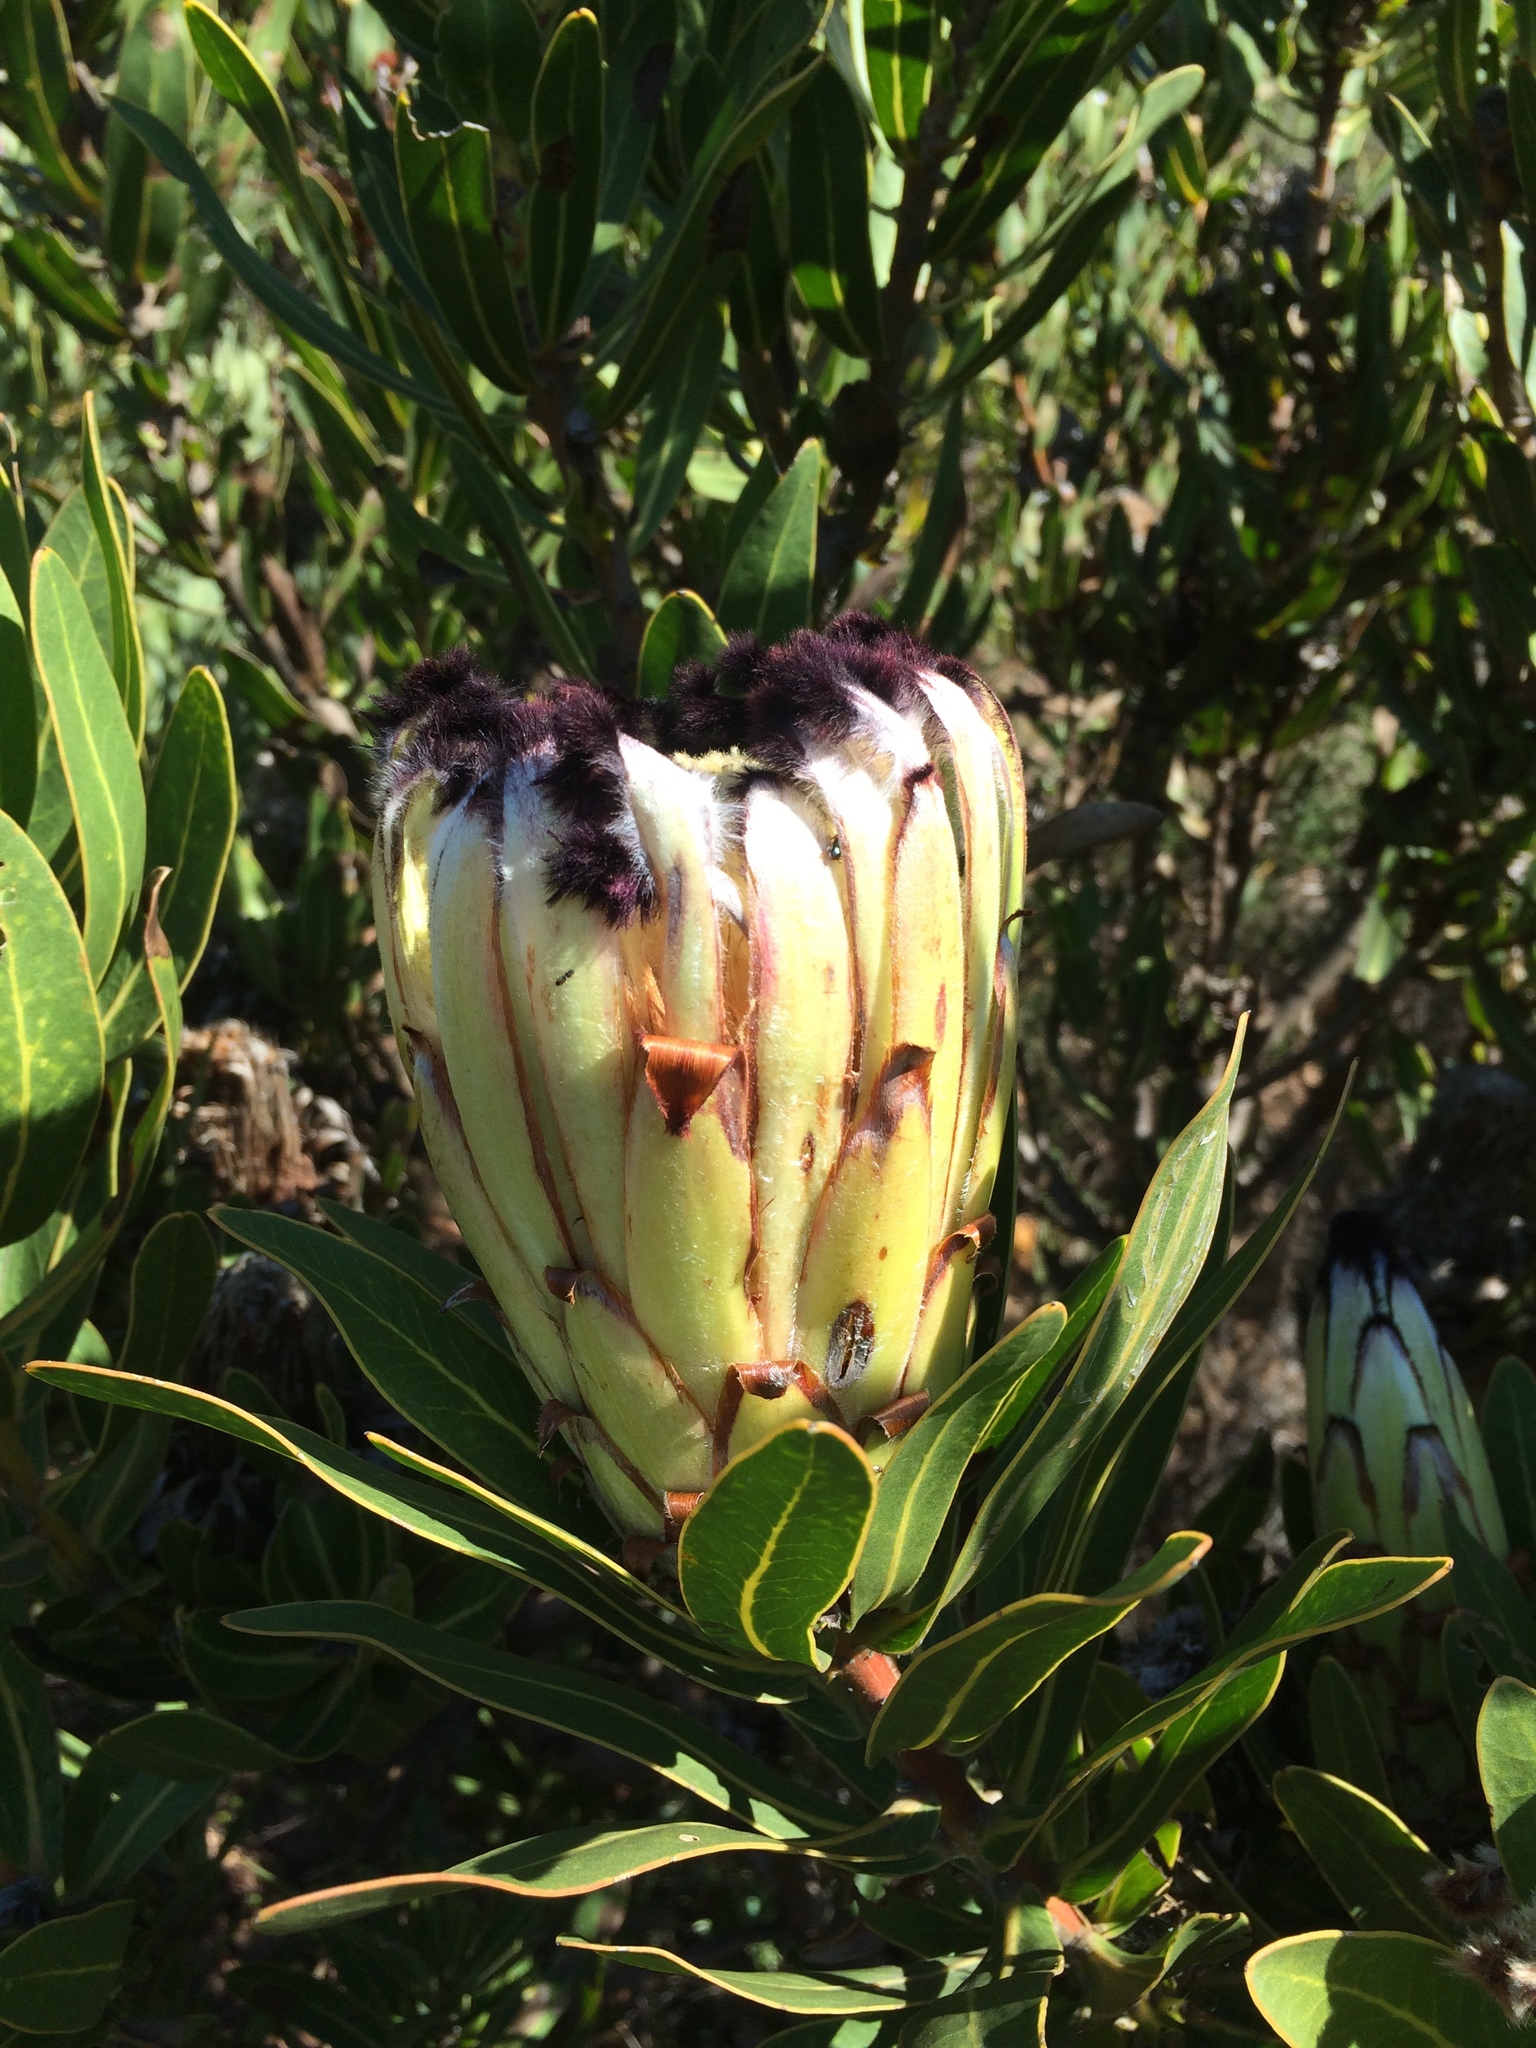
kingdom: Plantae
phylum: Tracheophyta
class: Magnoliopsida
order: Proteales
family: Proteaceae
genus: Protea
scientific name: Protea
